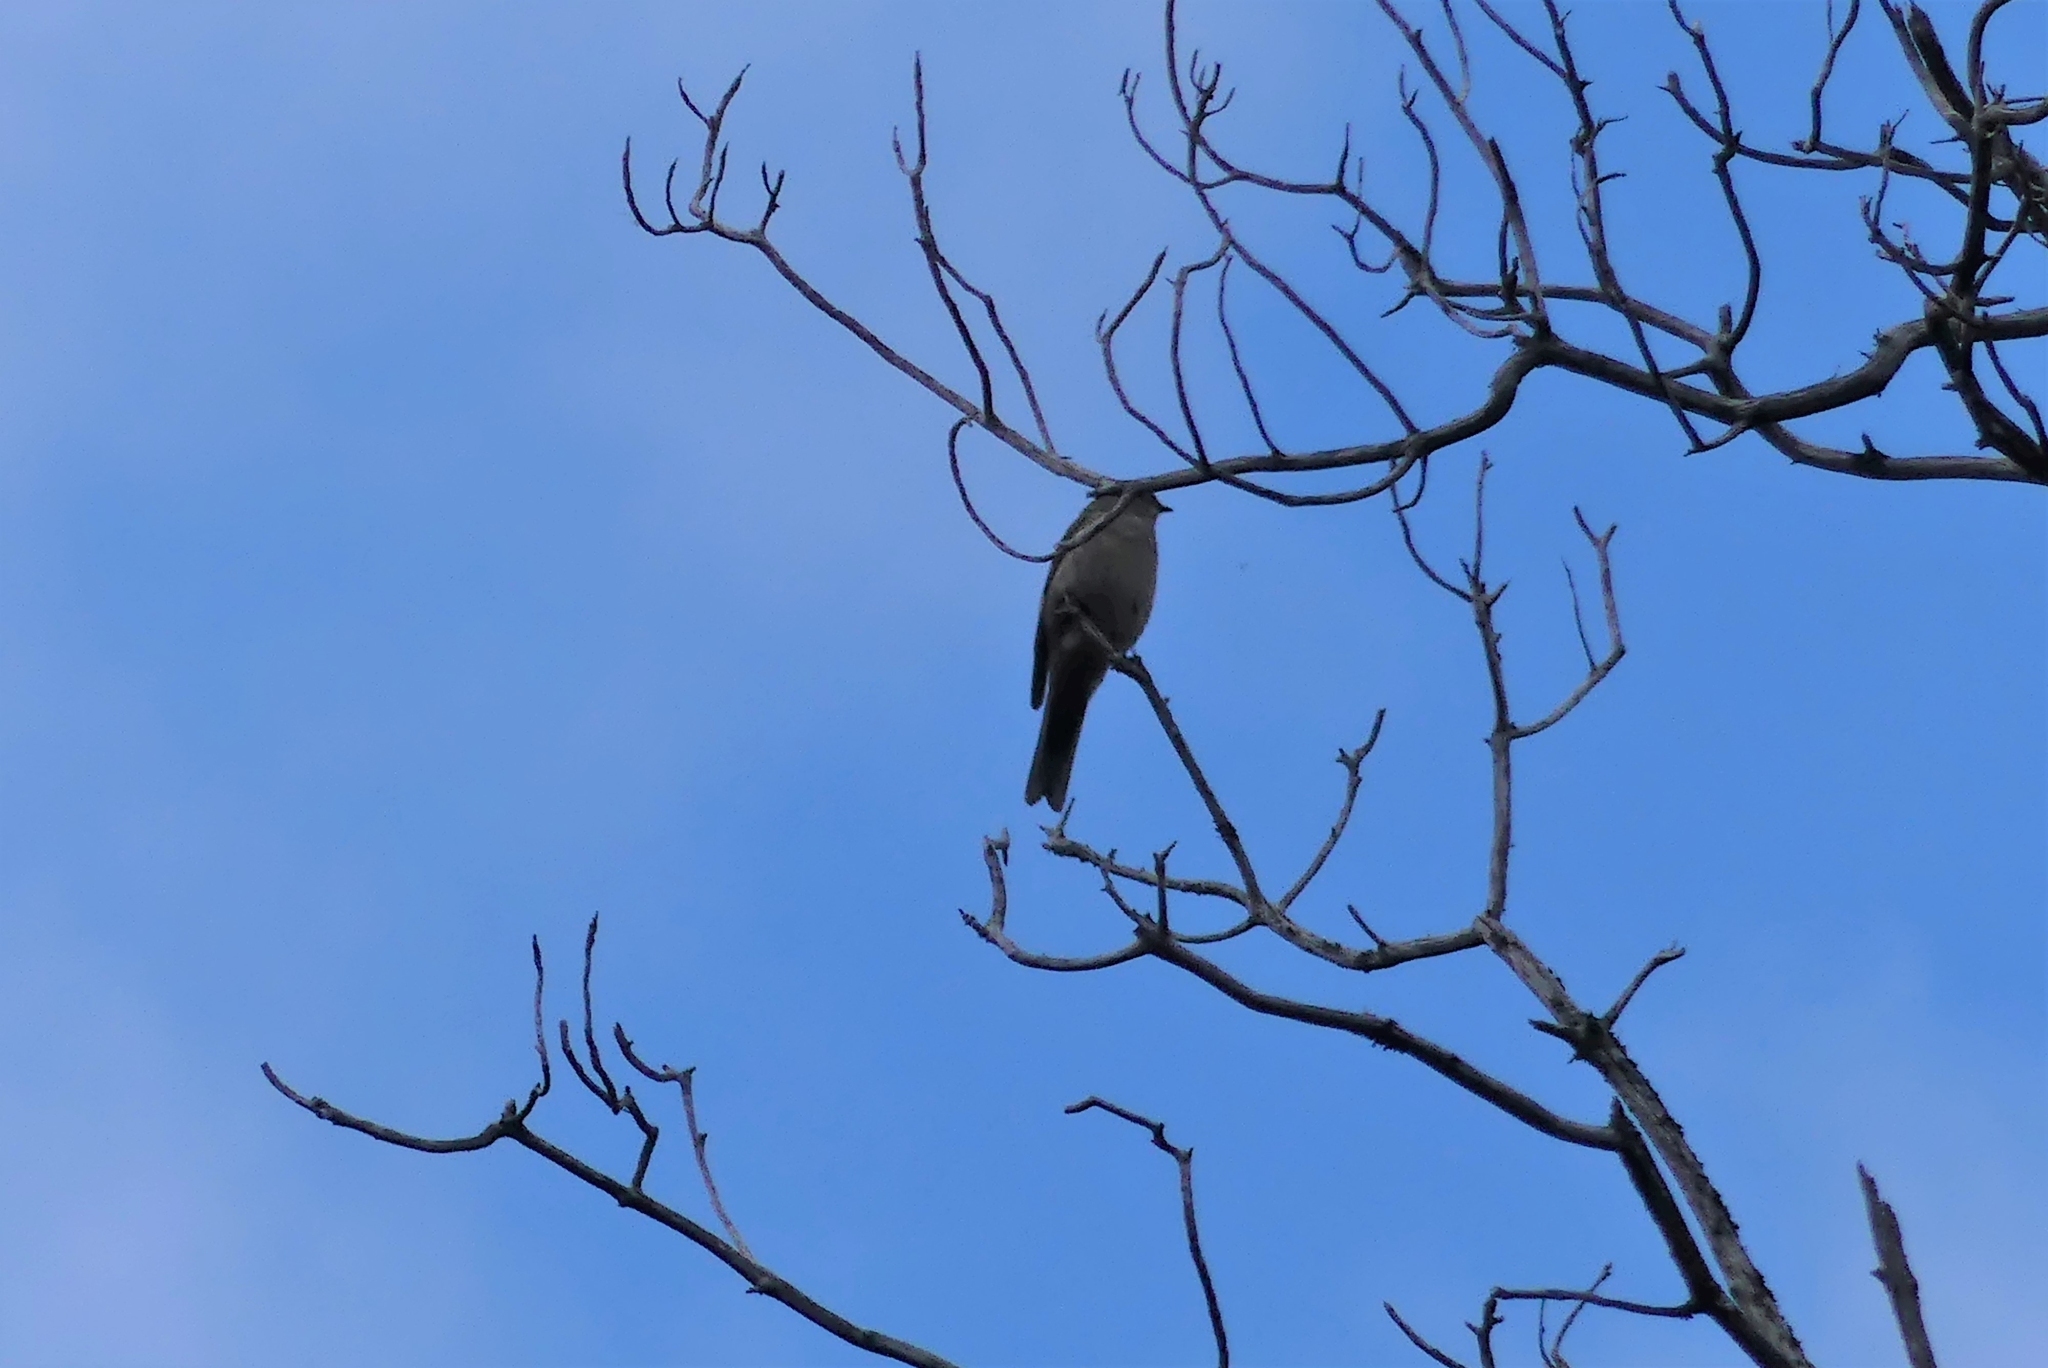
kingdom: Animalia
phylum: Chordata
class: Aves
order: Passeriformes
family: Turdidae
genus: Myadestes
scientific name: Myadestes townsendi
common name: Townsend's solitaire
